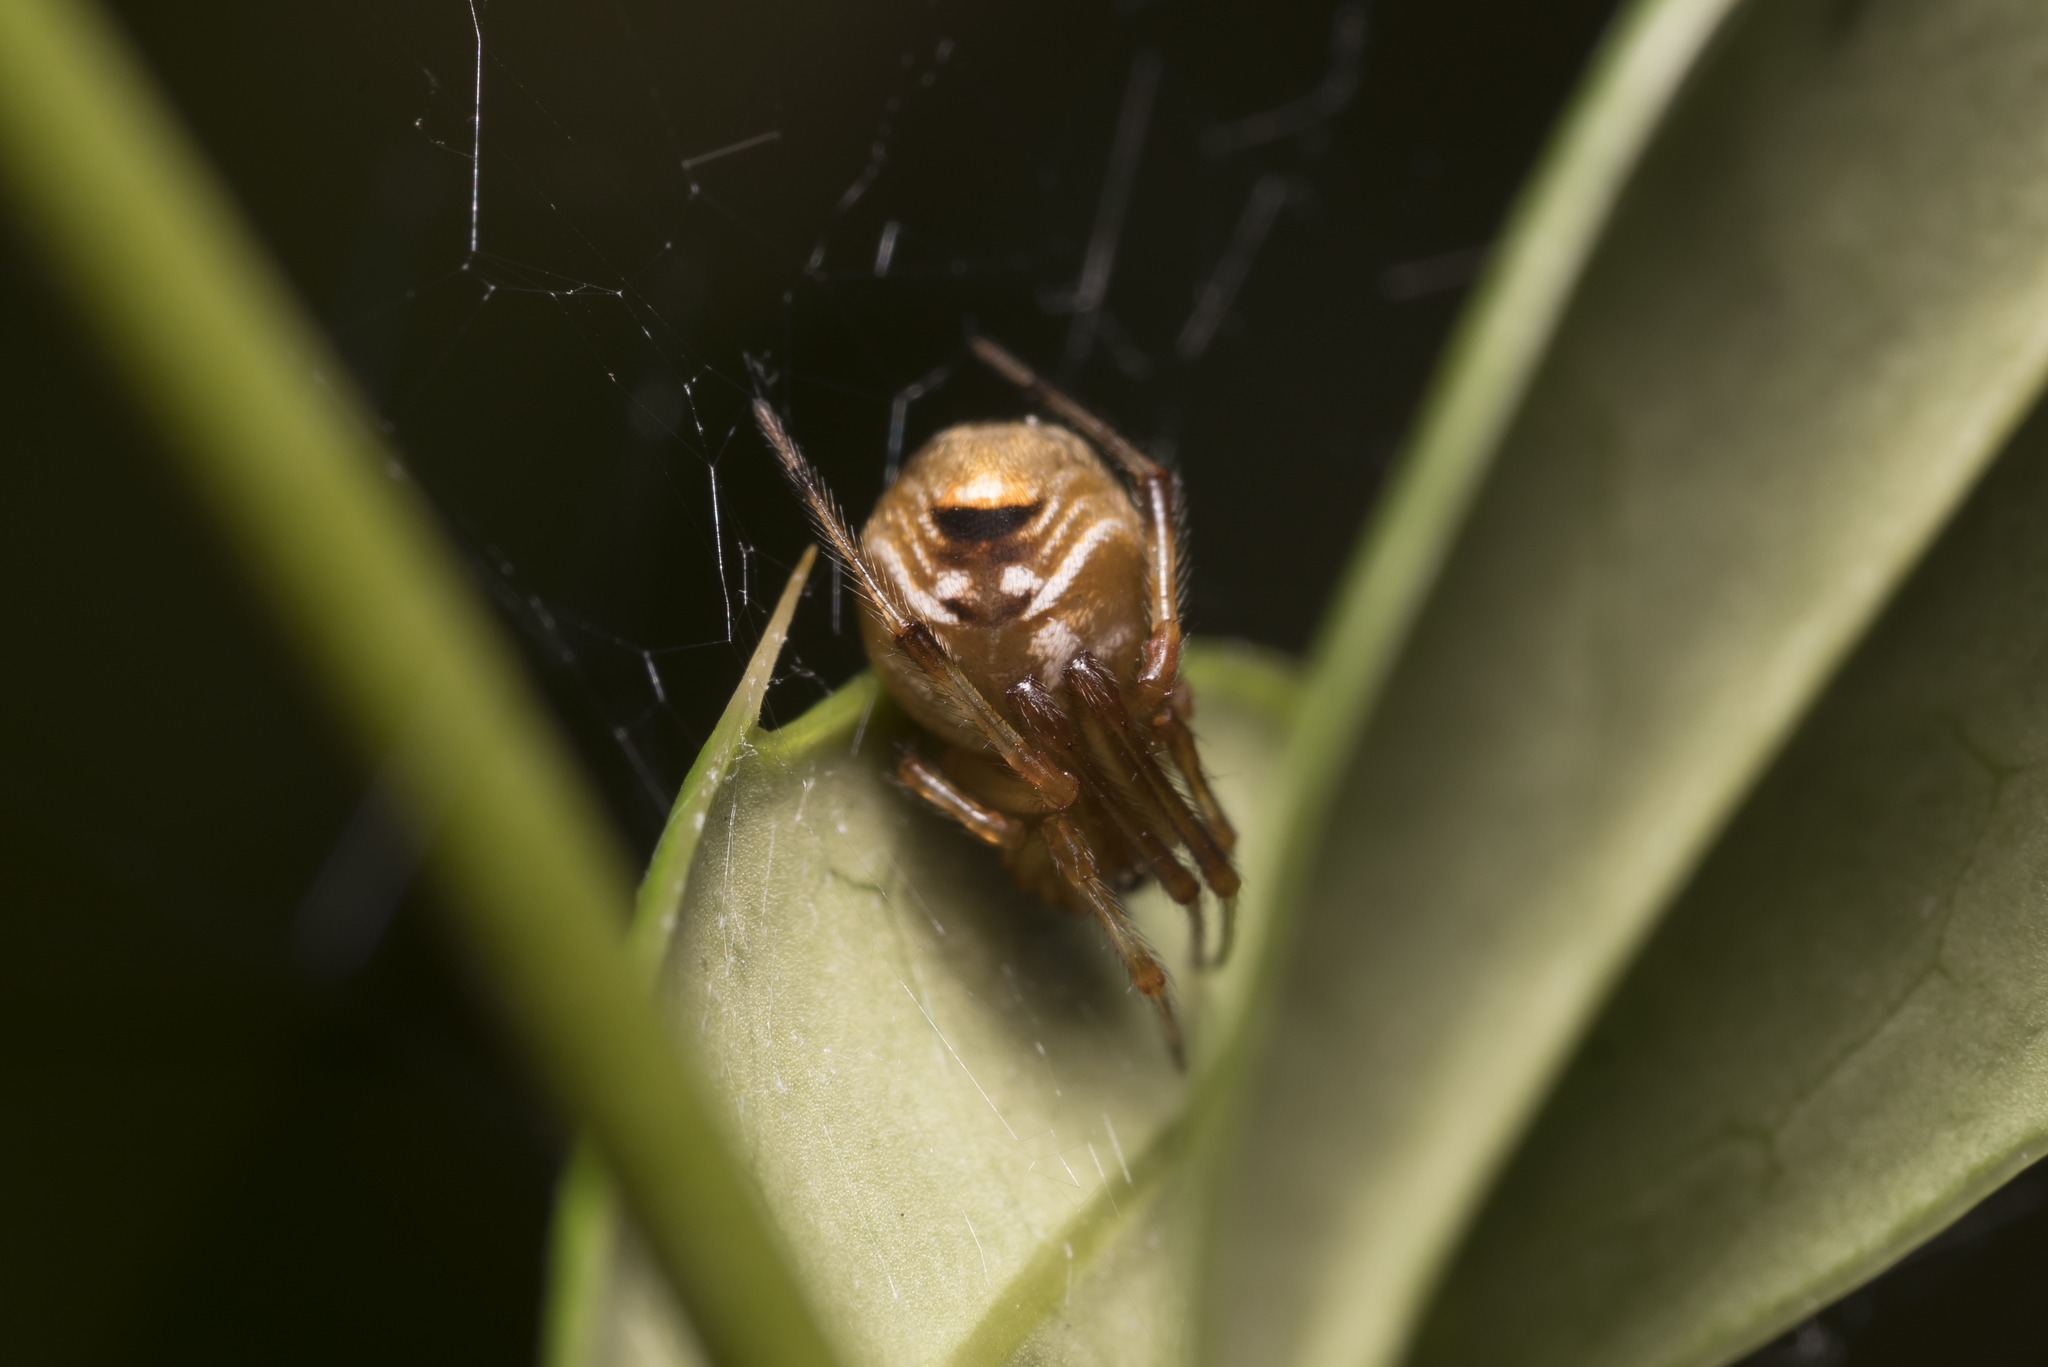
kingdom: Animalia
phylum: Arthropoda
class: Arachnida
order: Araneae
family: Theridiidae
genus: Parasteatoda
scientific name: Parasteatoda lunata
